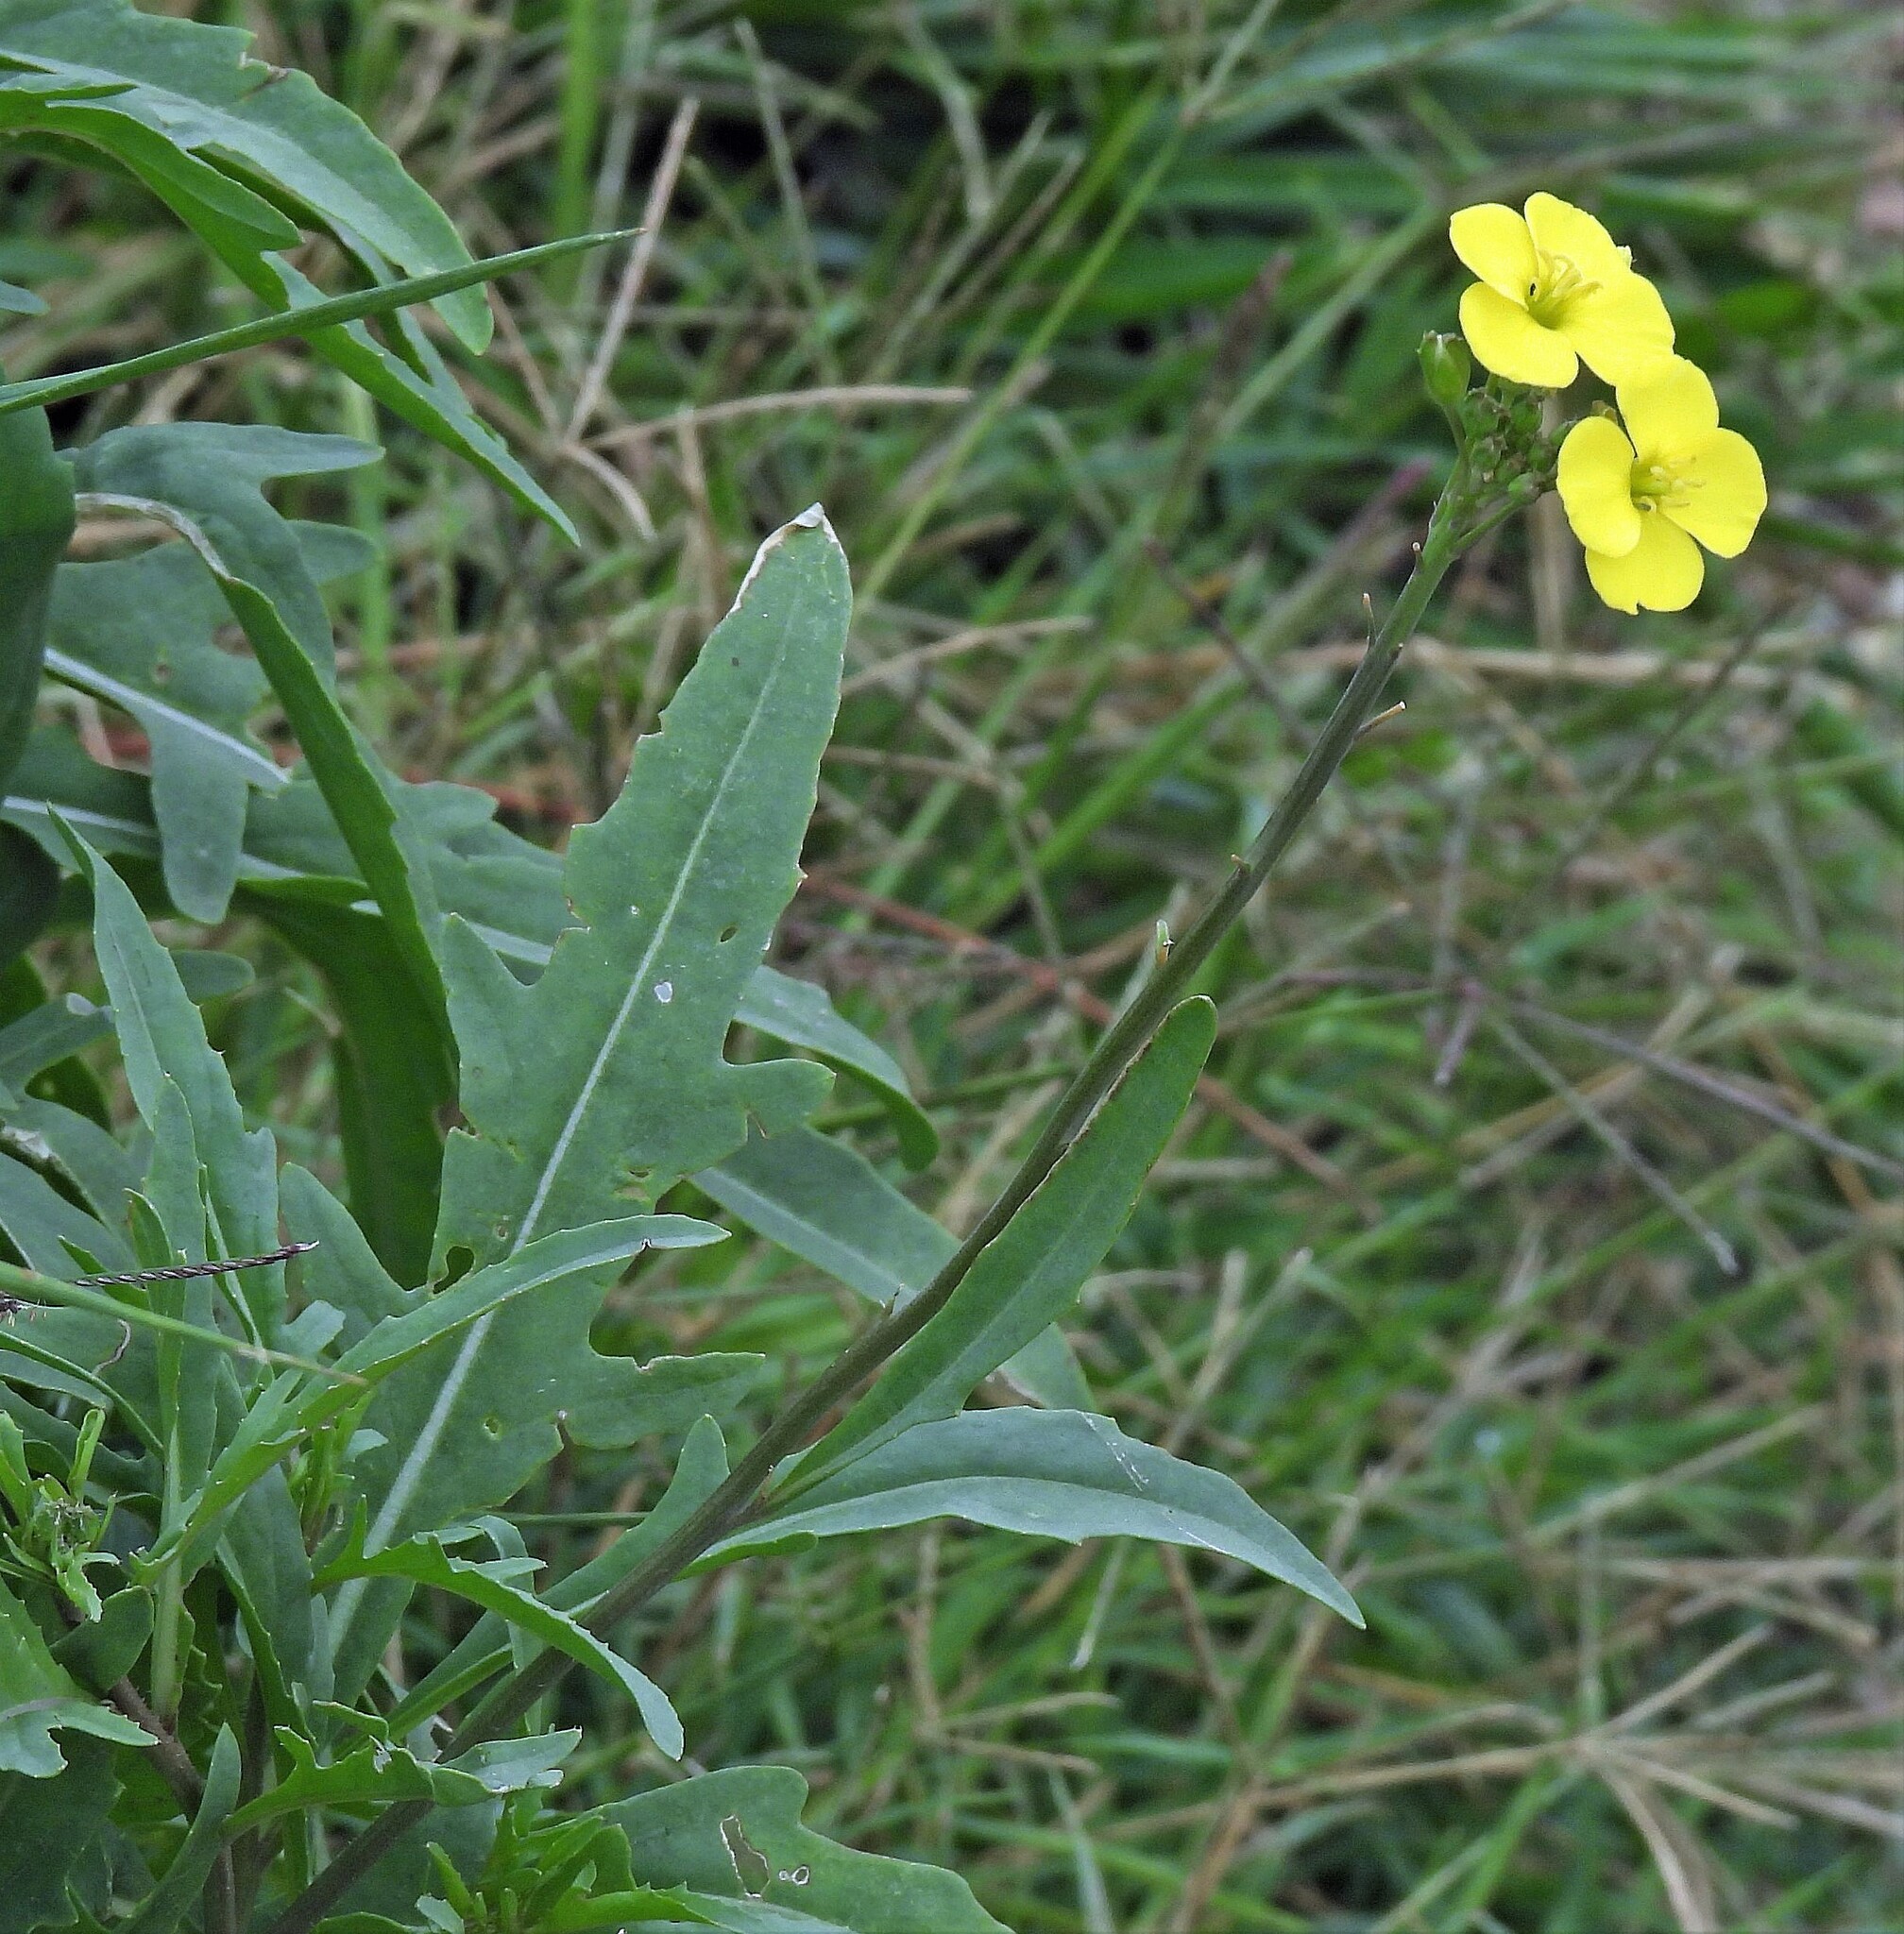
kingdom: Plantae
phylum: Tracheophyta
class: Magnoliopsida
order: Brassicales
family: Brassicaceae
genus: Diplotaxis
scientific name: Diplotaxis tenuifolia
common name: Perennial wall-rocket
